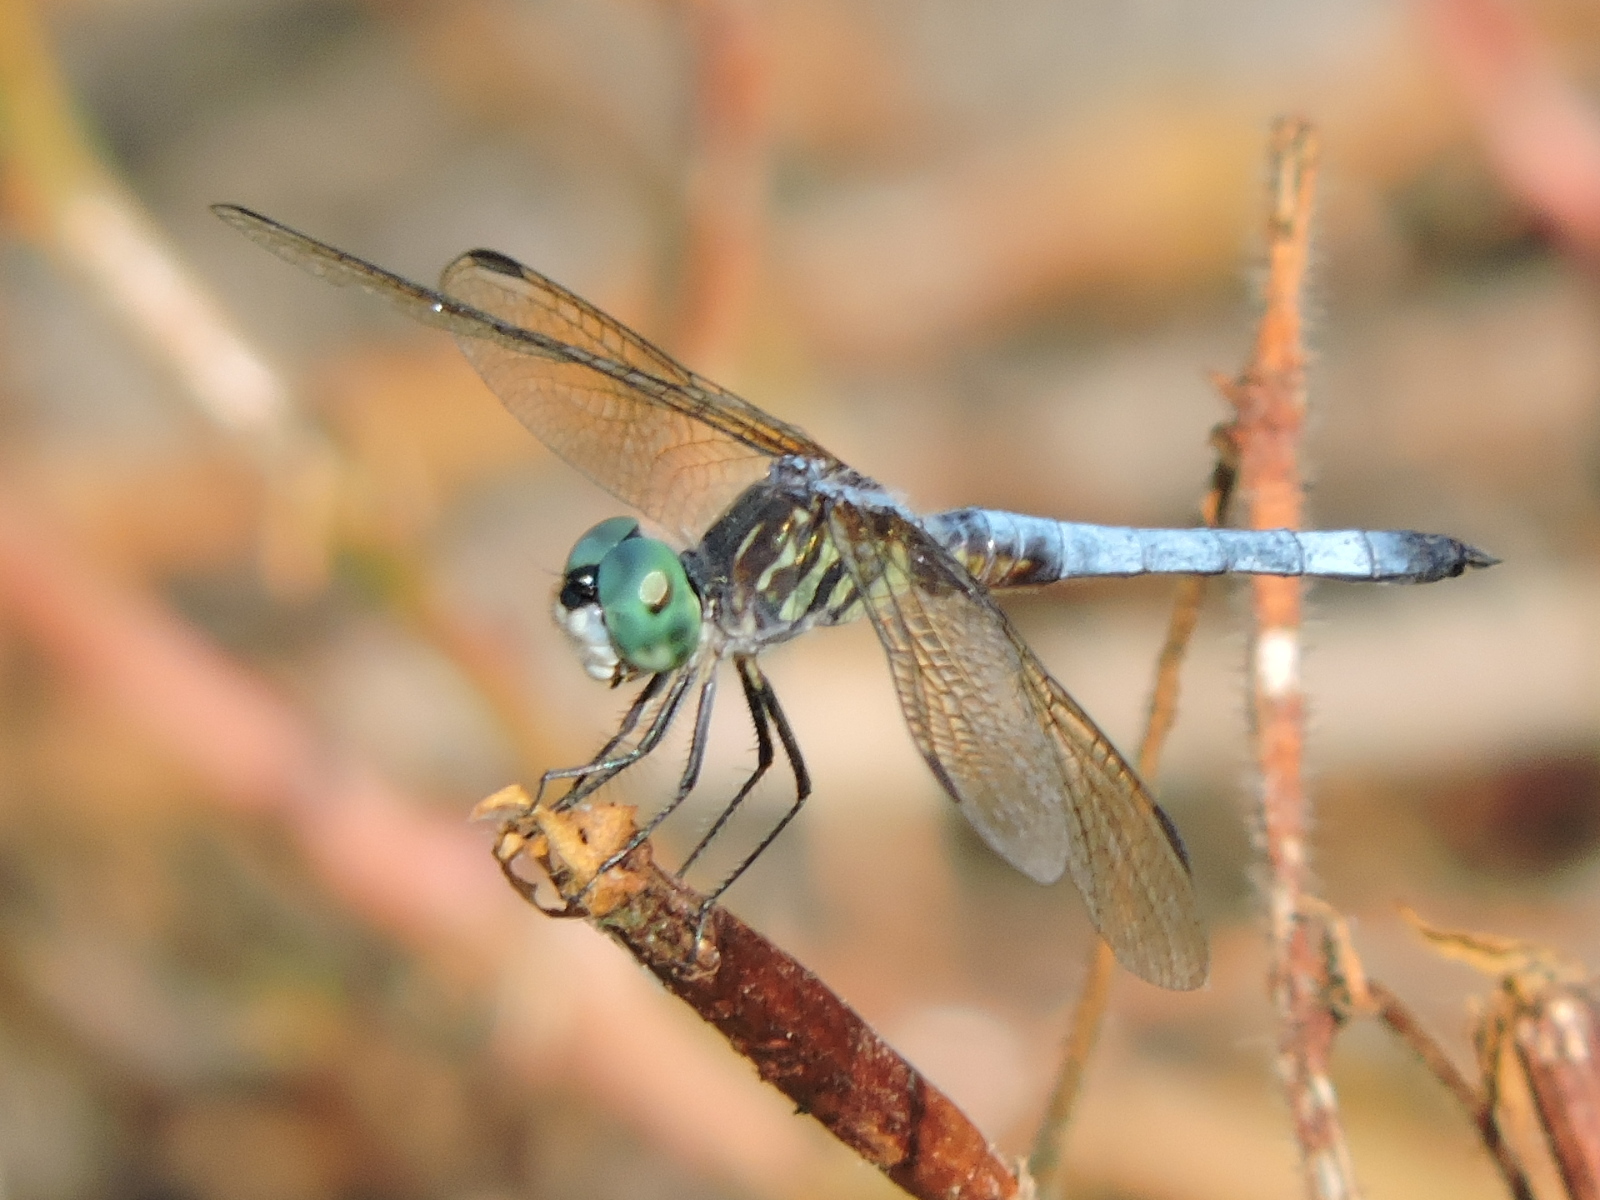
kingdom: Animalia
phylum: Arthropoda
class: Insecta
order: Odonata
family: Libellulidae
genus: Pachydiplax
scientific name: Pachydiplax longipennis
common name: Blue dasher
